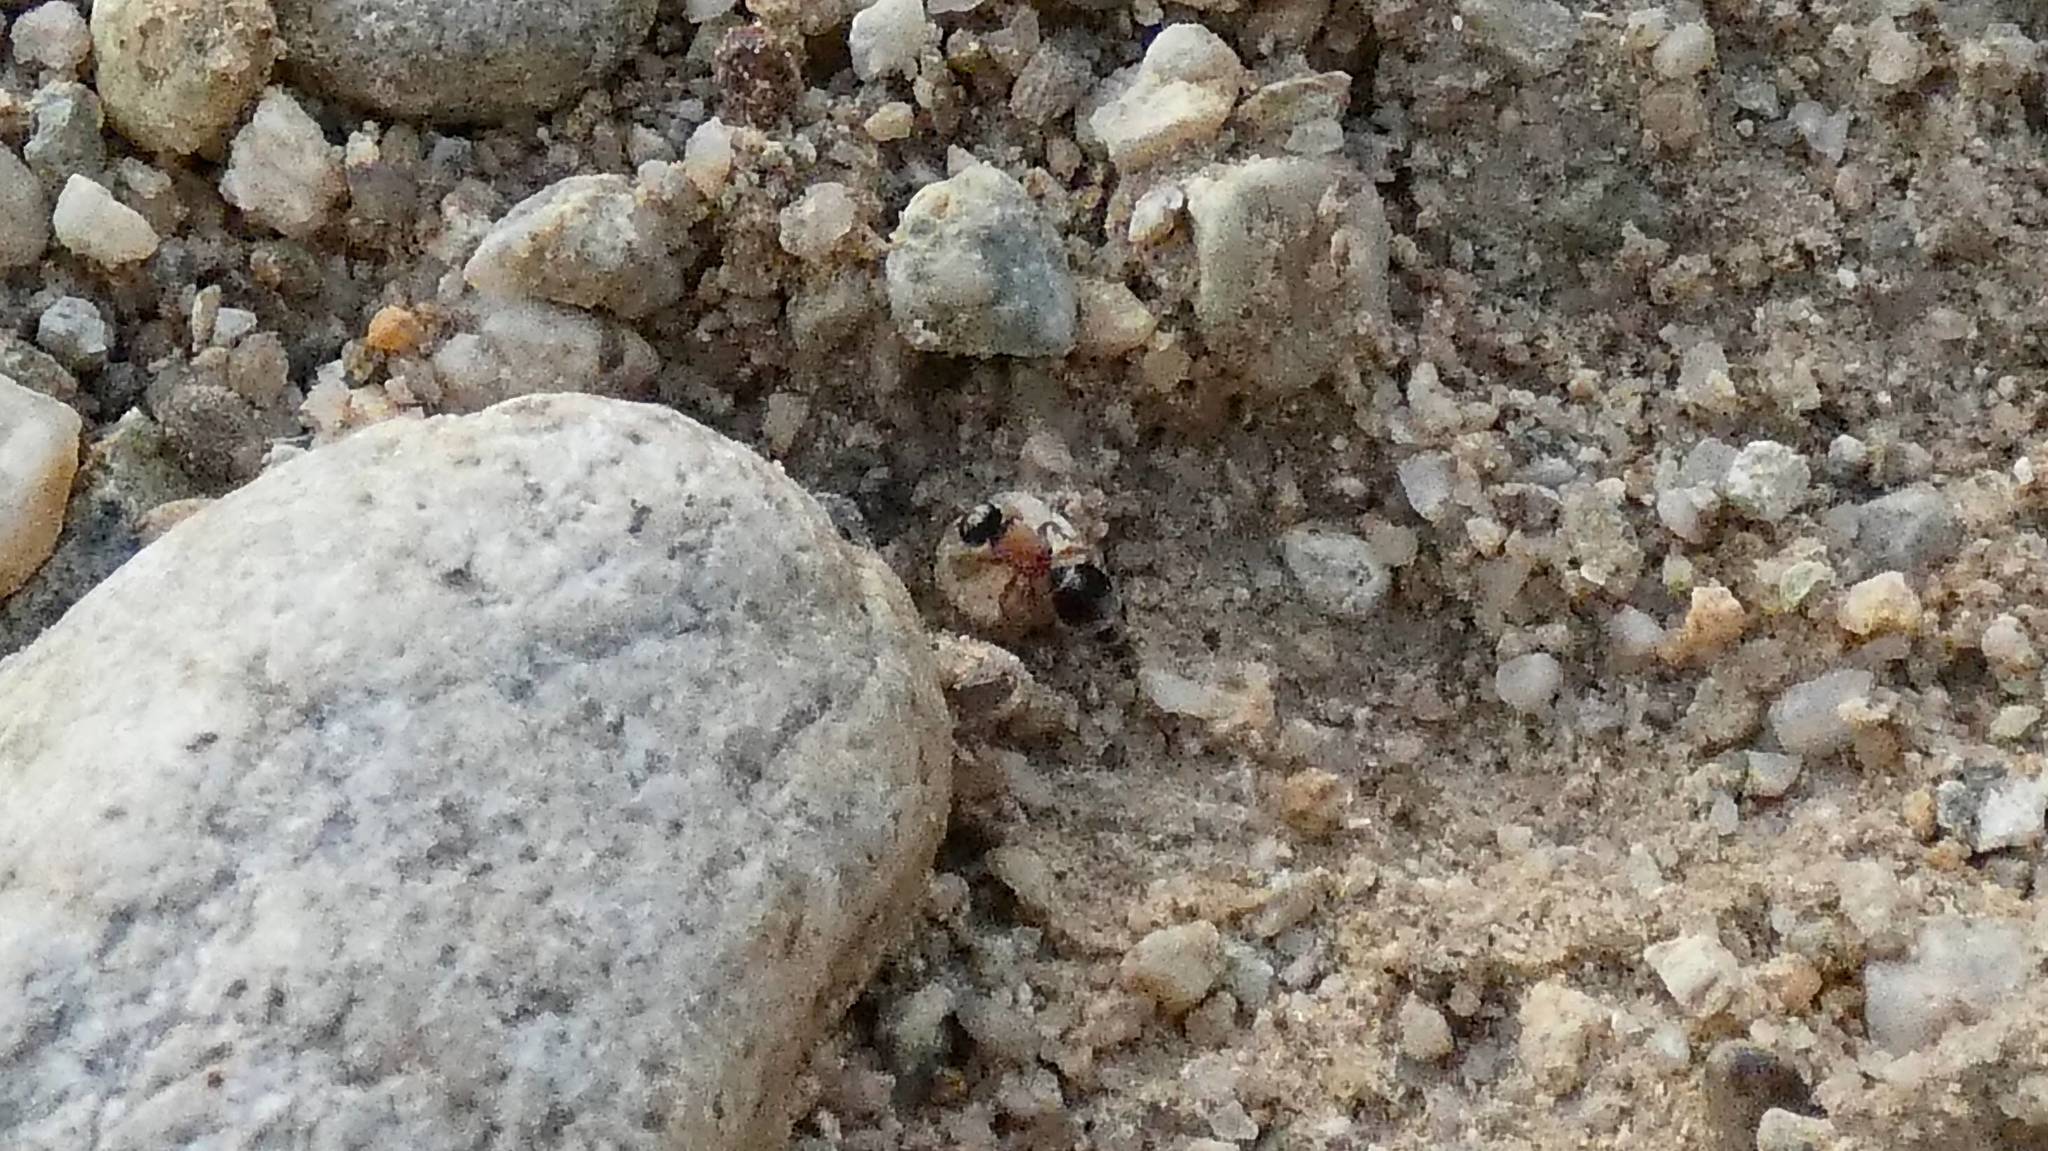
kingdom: Animalia
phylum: Arthropoda
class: Insecta
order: Hymenoptera
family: Mutillidae
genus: Smicromyrme
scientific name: Smicromyrme perisii
